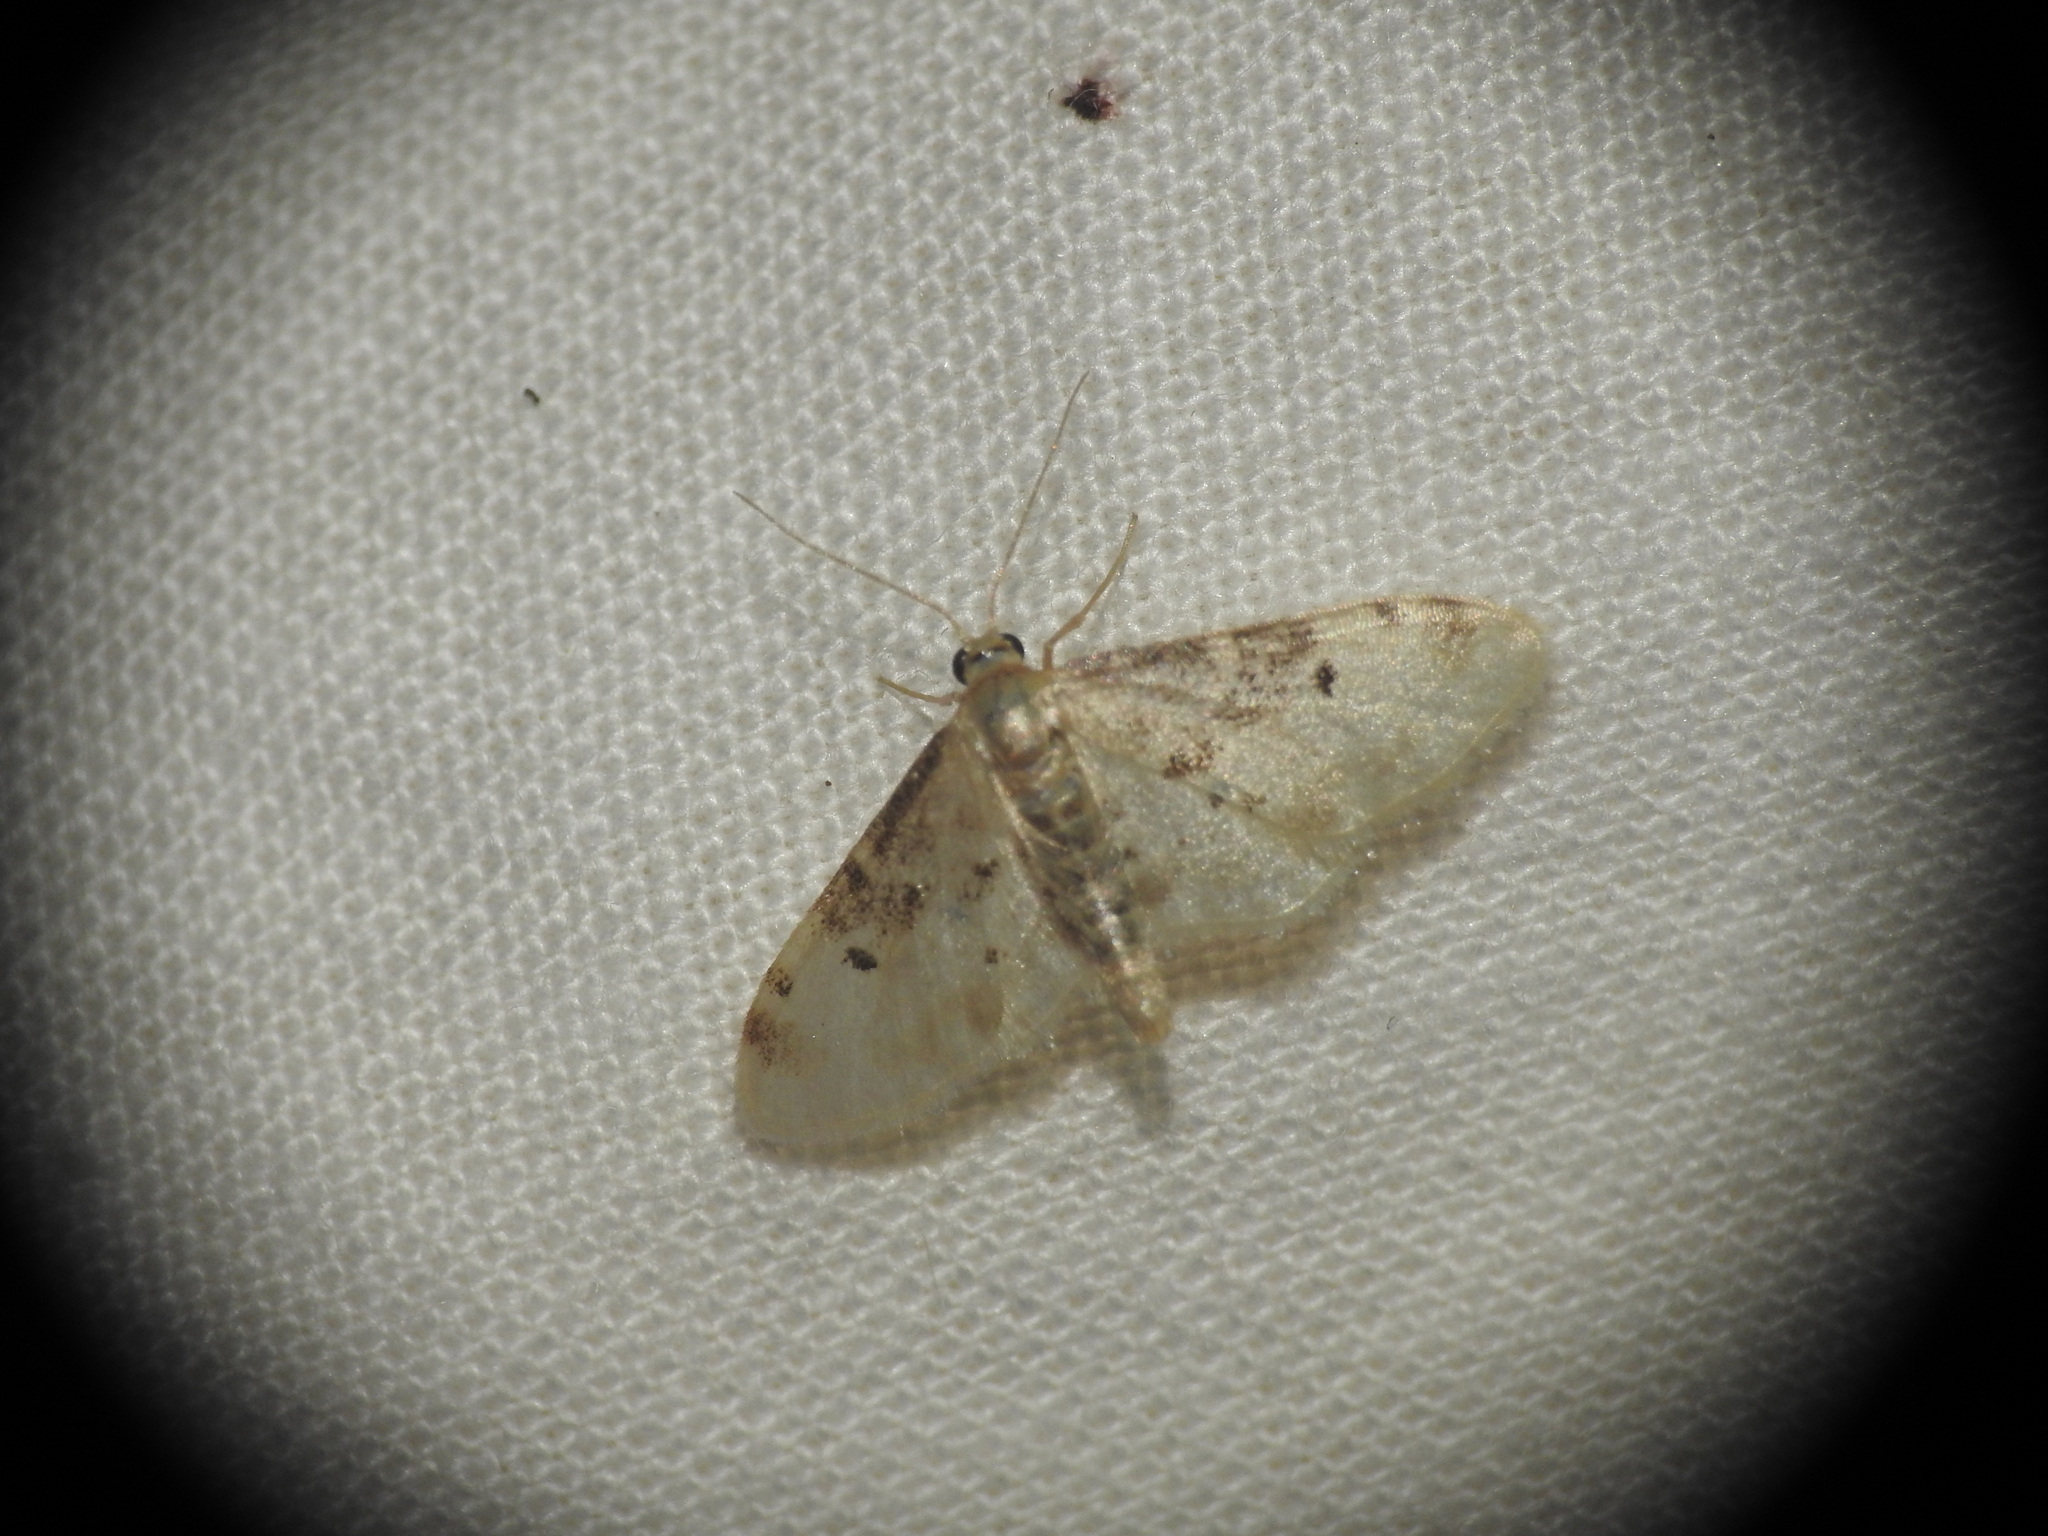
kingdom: Animalia
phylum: Arthropoda
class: Insecta
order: Lepidoptera
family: Geometridae
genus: Idaea
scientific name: Idaea filicata
